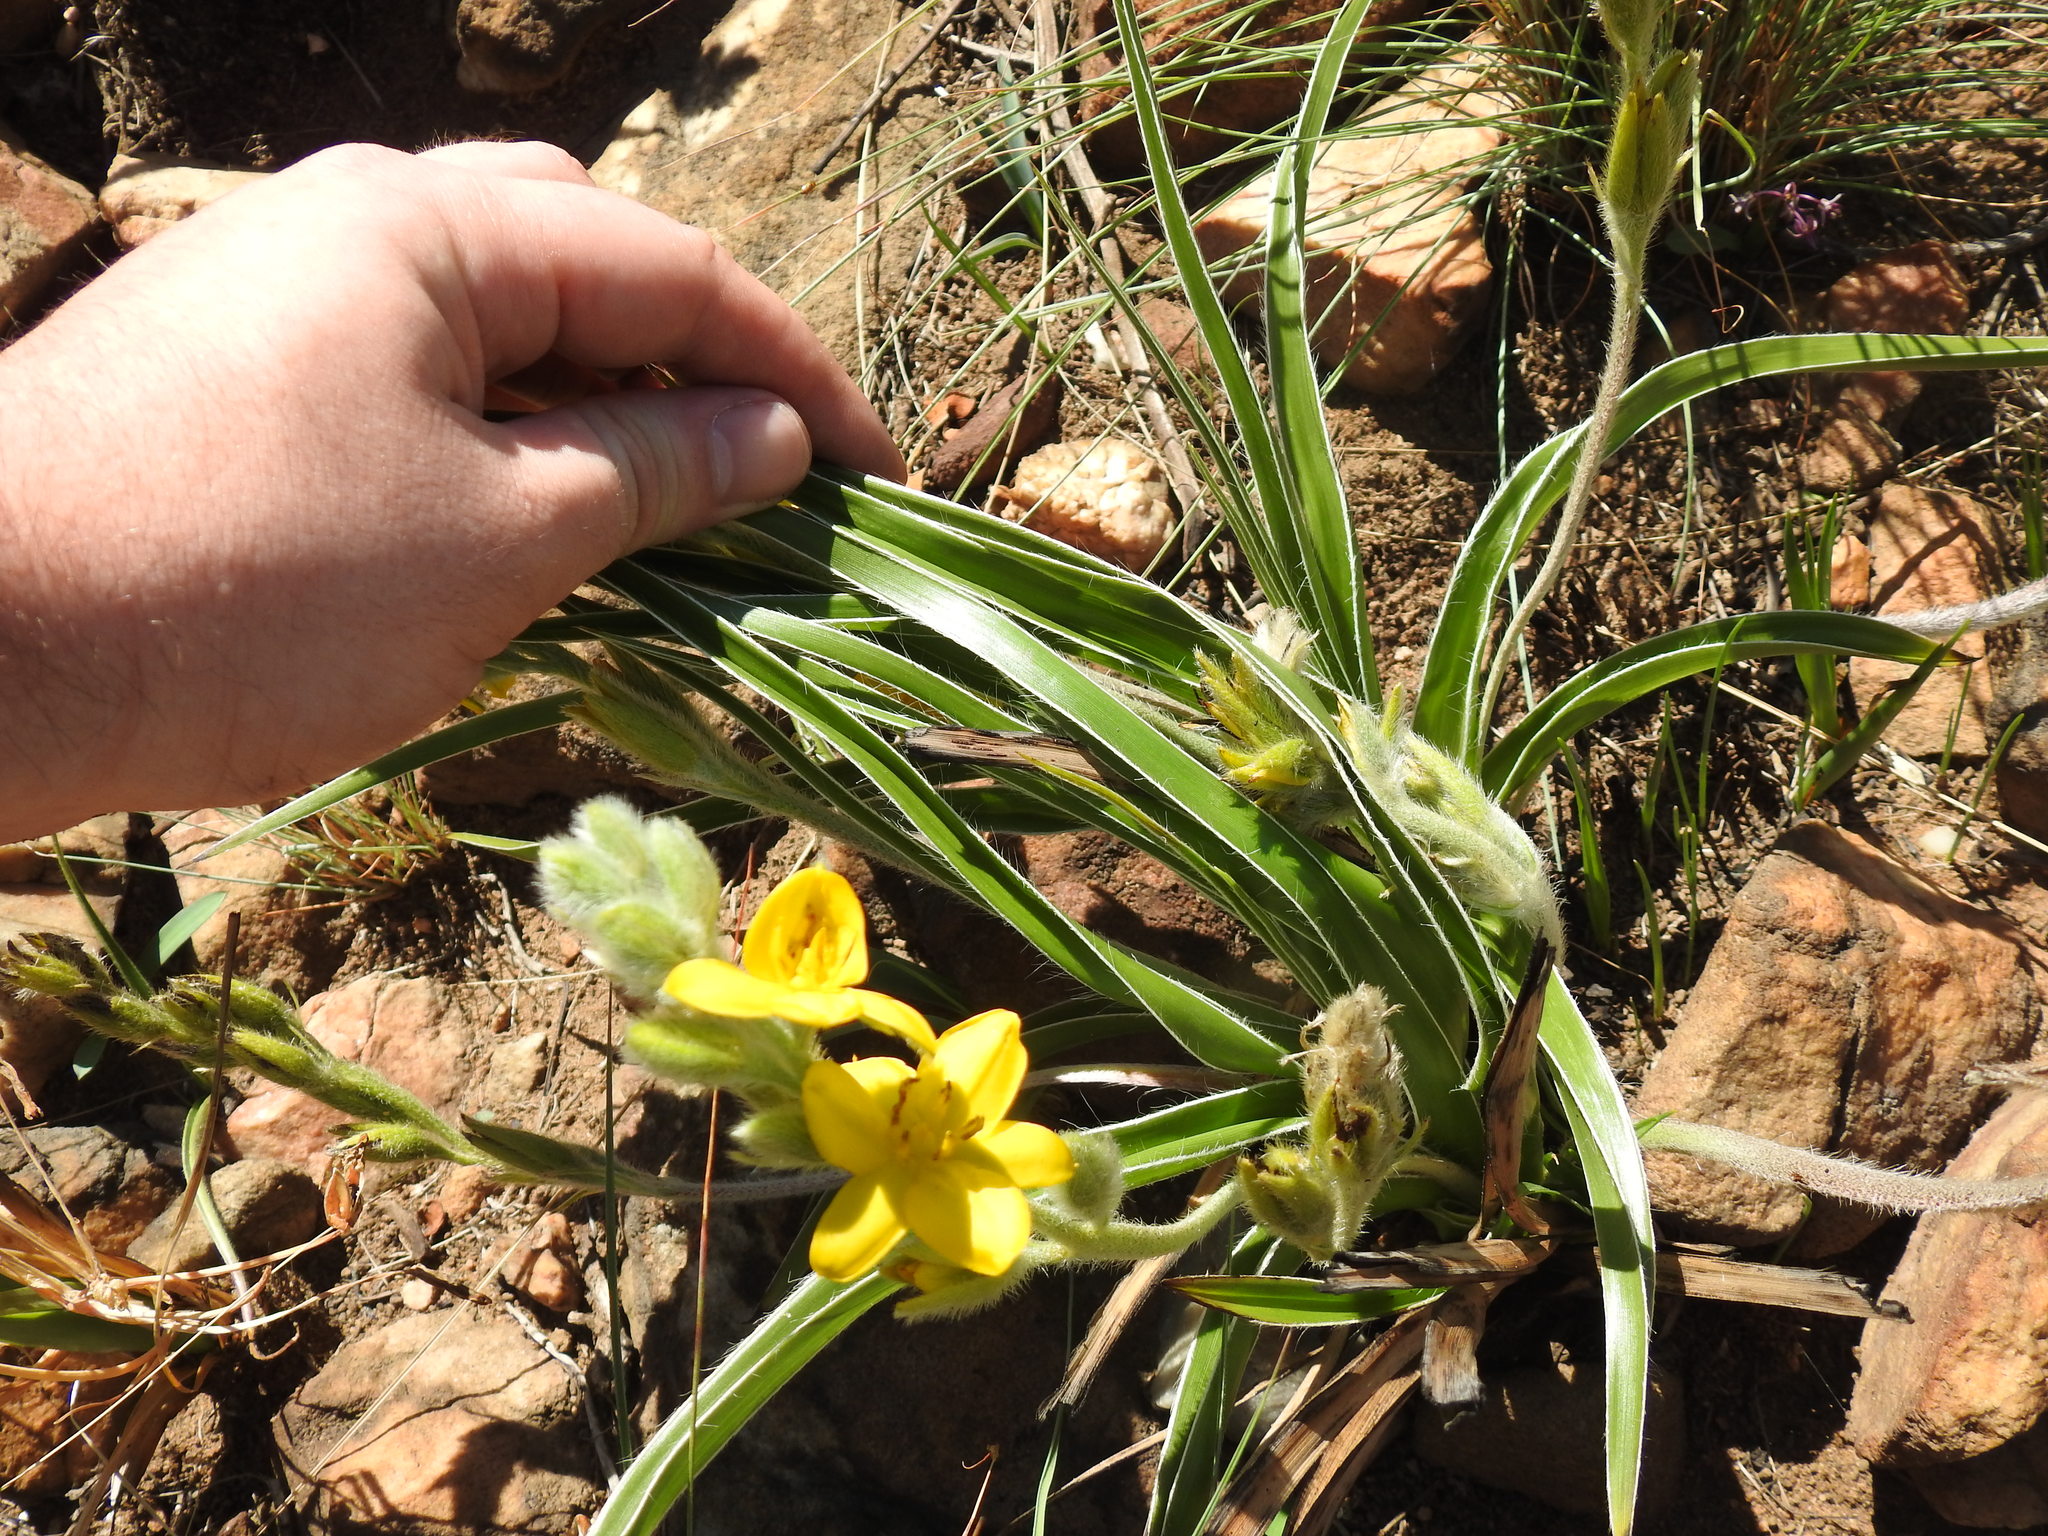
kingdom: Plantae
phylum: Tracheophyta
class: Liliopsida
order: Asparagales
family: Hypoxidaceae
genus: Hypoxis
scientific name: Hypoxis obtusa
